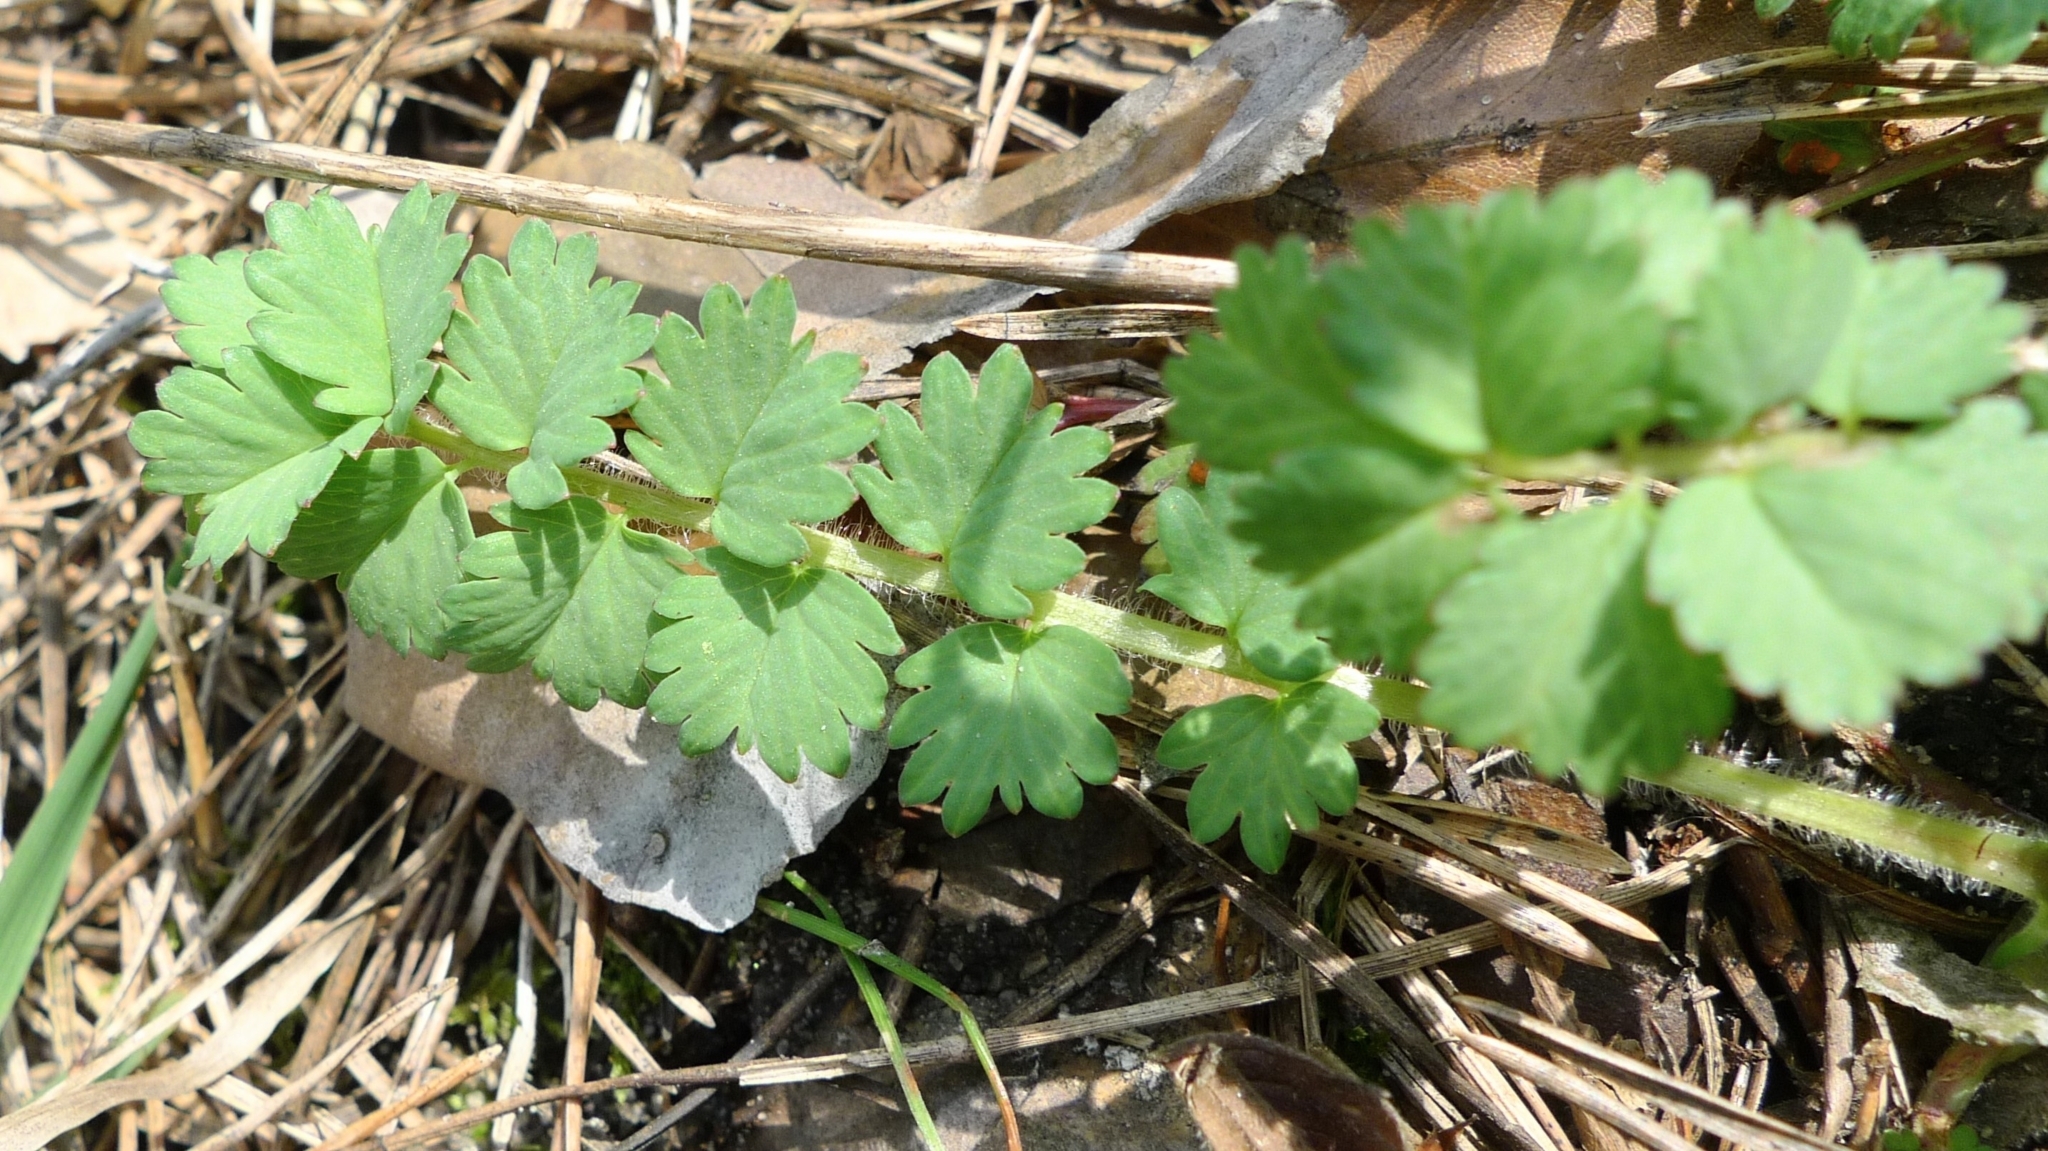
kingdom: Plantae
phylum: Tracheophyta
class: Magnoliopsida
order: Rosales
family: Rosaceae
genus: Poterium
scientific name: Poterium sanguisorba
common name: Salad burnet
